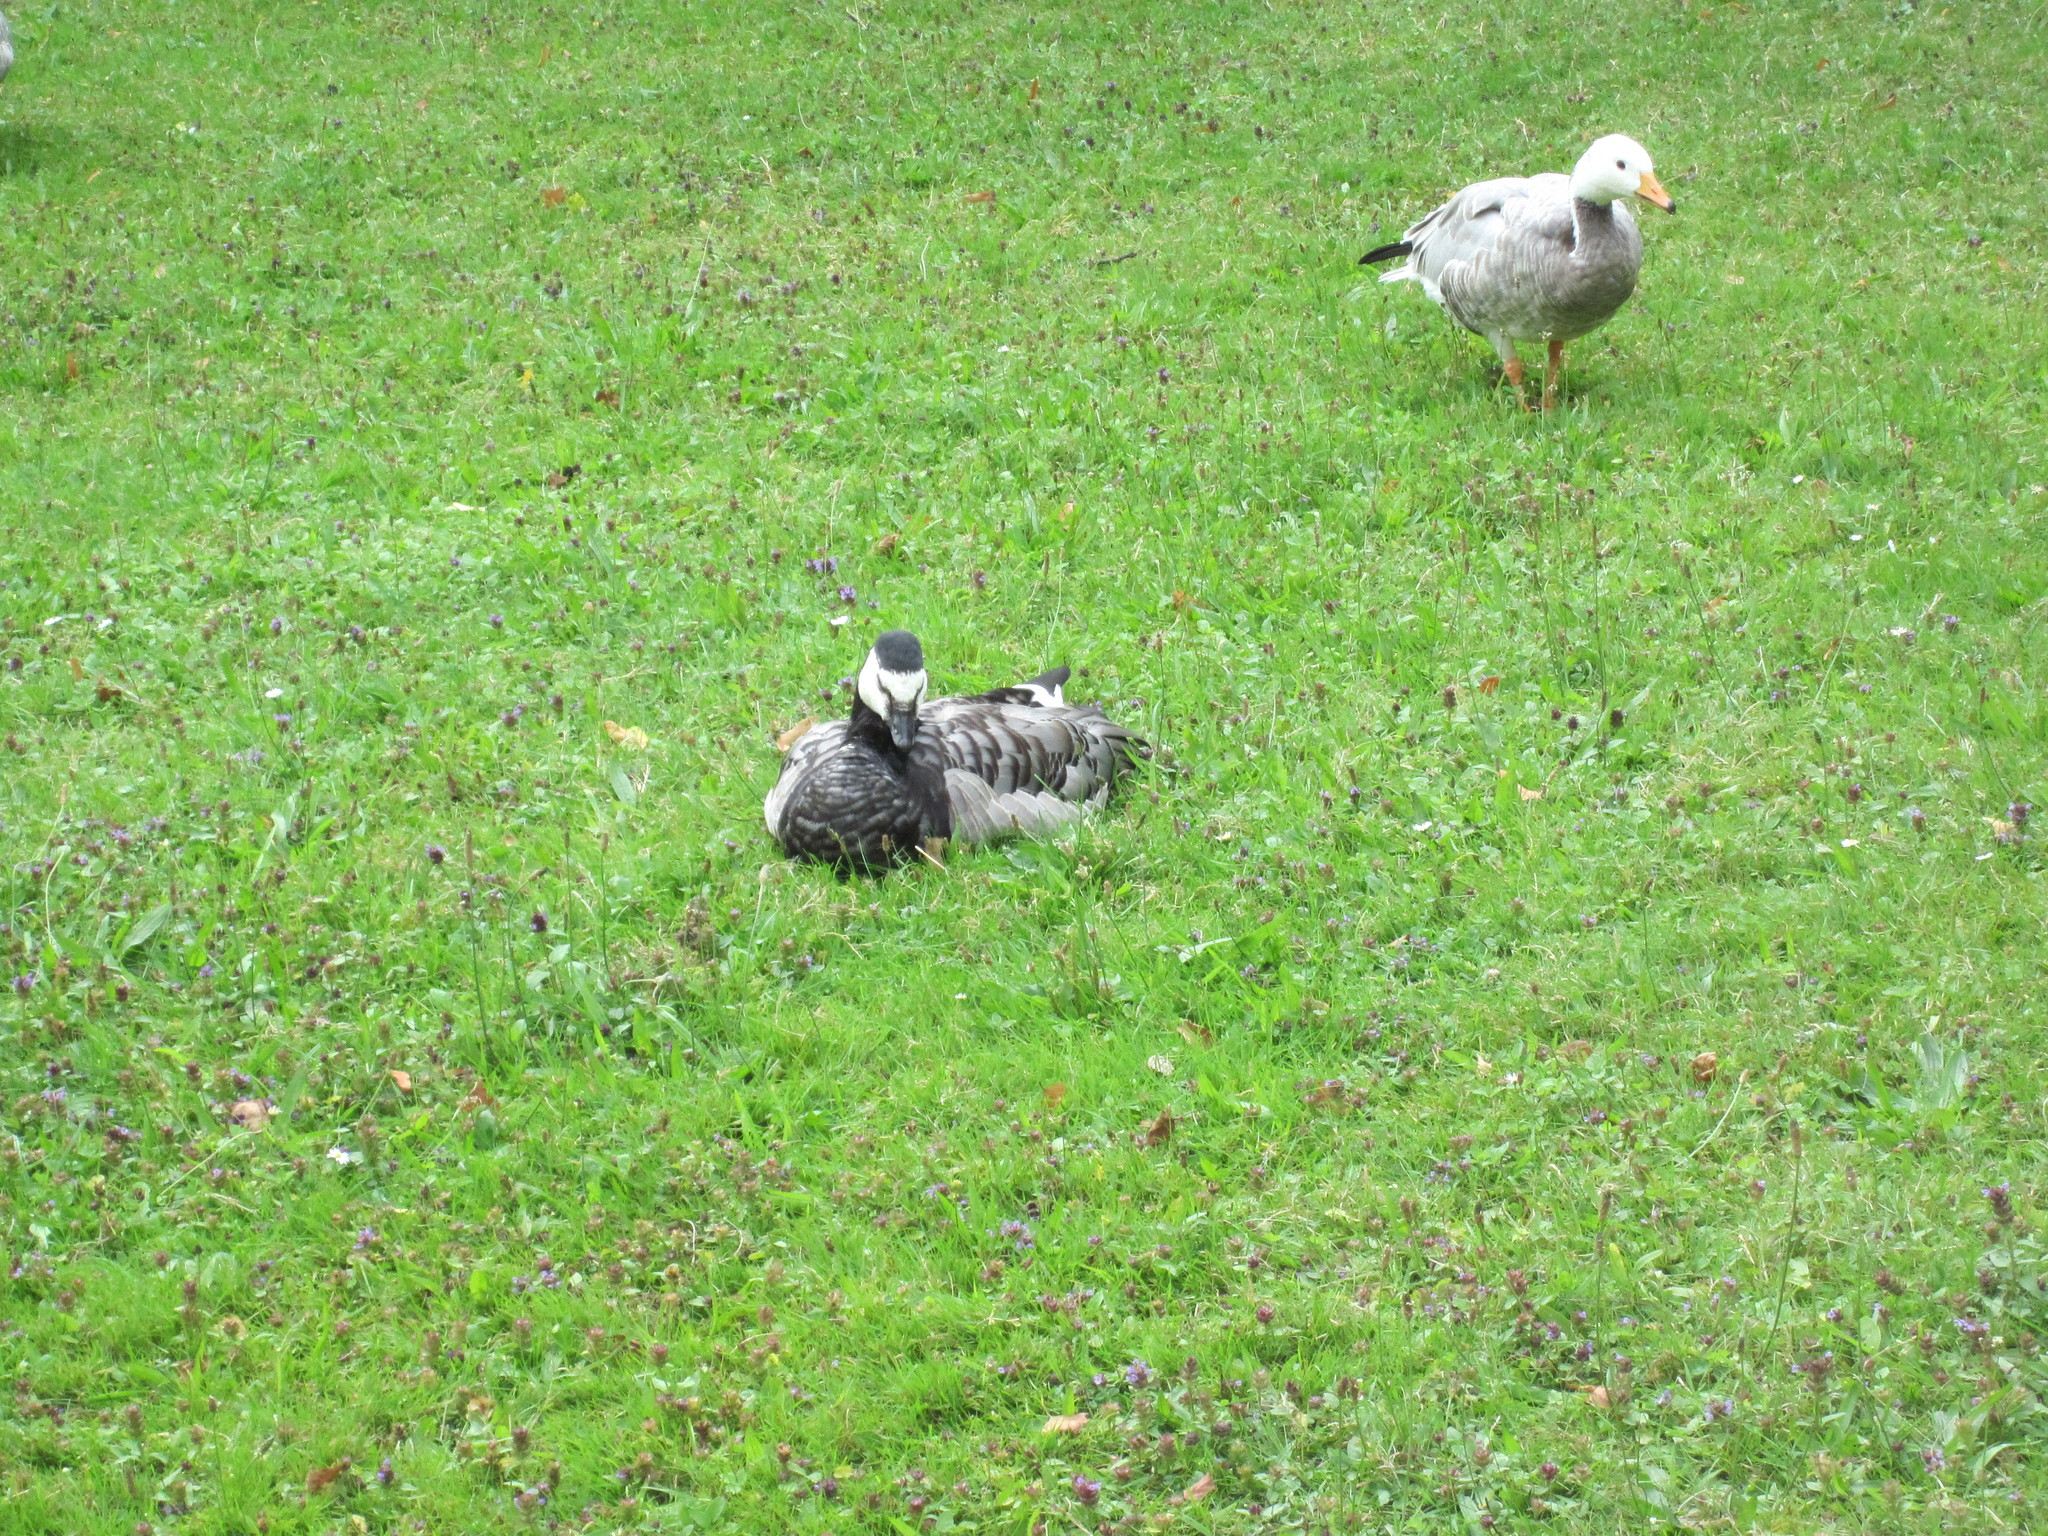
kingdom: Animalia
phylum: Chordata
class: Aves
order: Anseriformes
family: Anatidae
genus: Branta
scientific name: Branta leucopsis
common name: Barnacle goose
